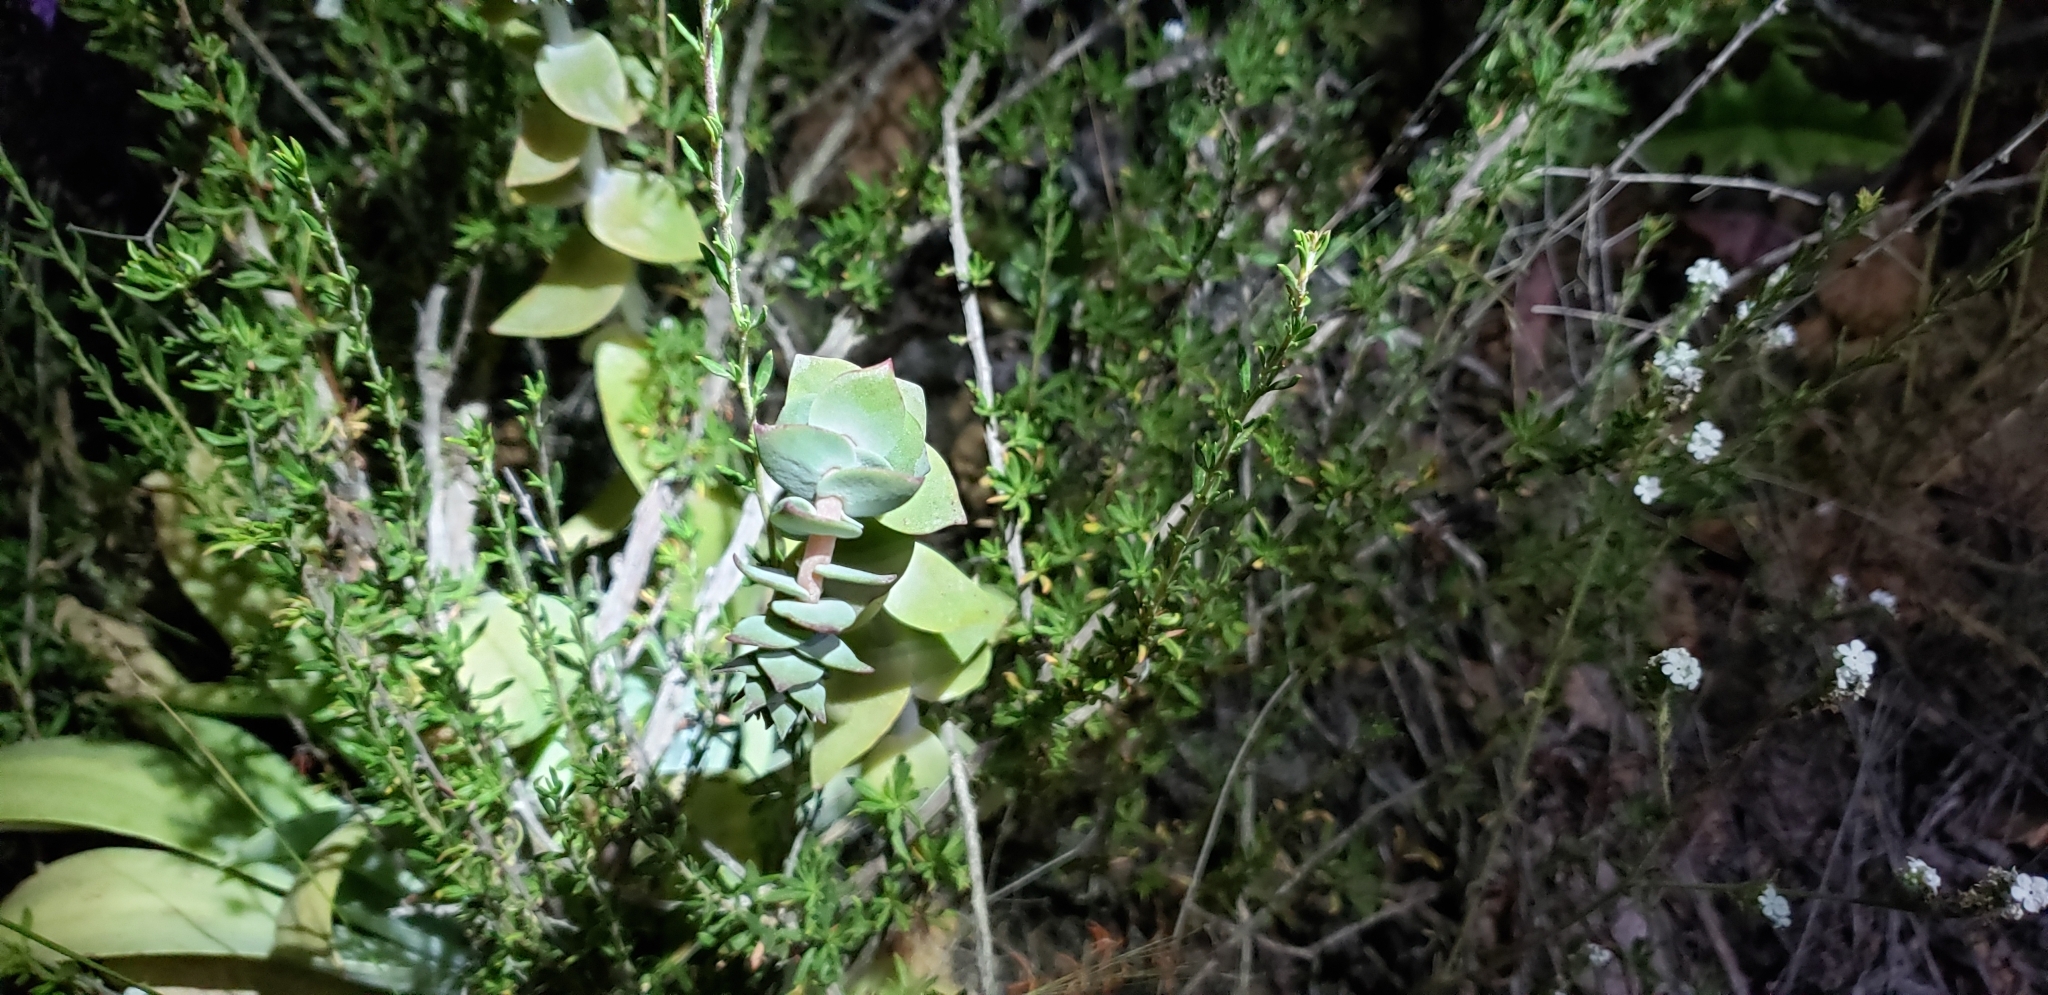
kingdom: Plantae
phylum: Tracheophyta
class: Magnoliopsida
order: Saxifragales
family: Crassulaceae
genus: Dudleya
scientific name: Dudleya pulverulenta
